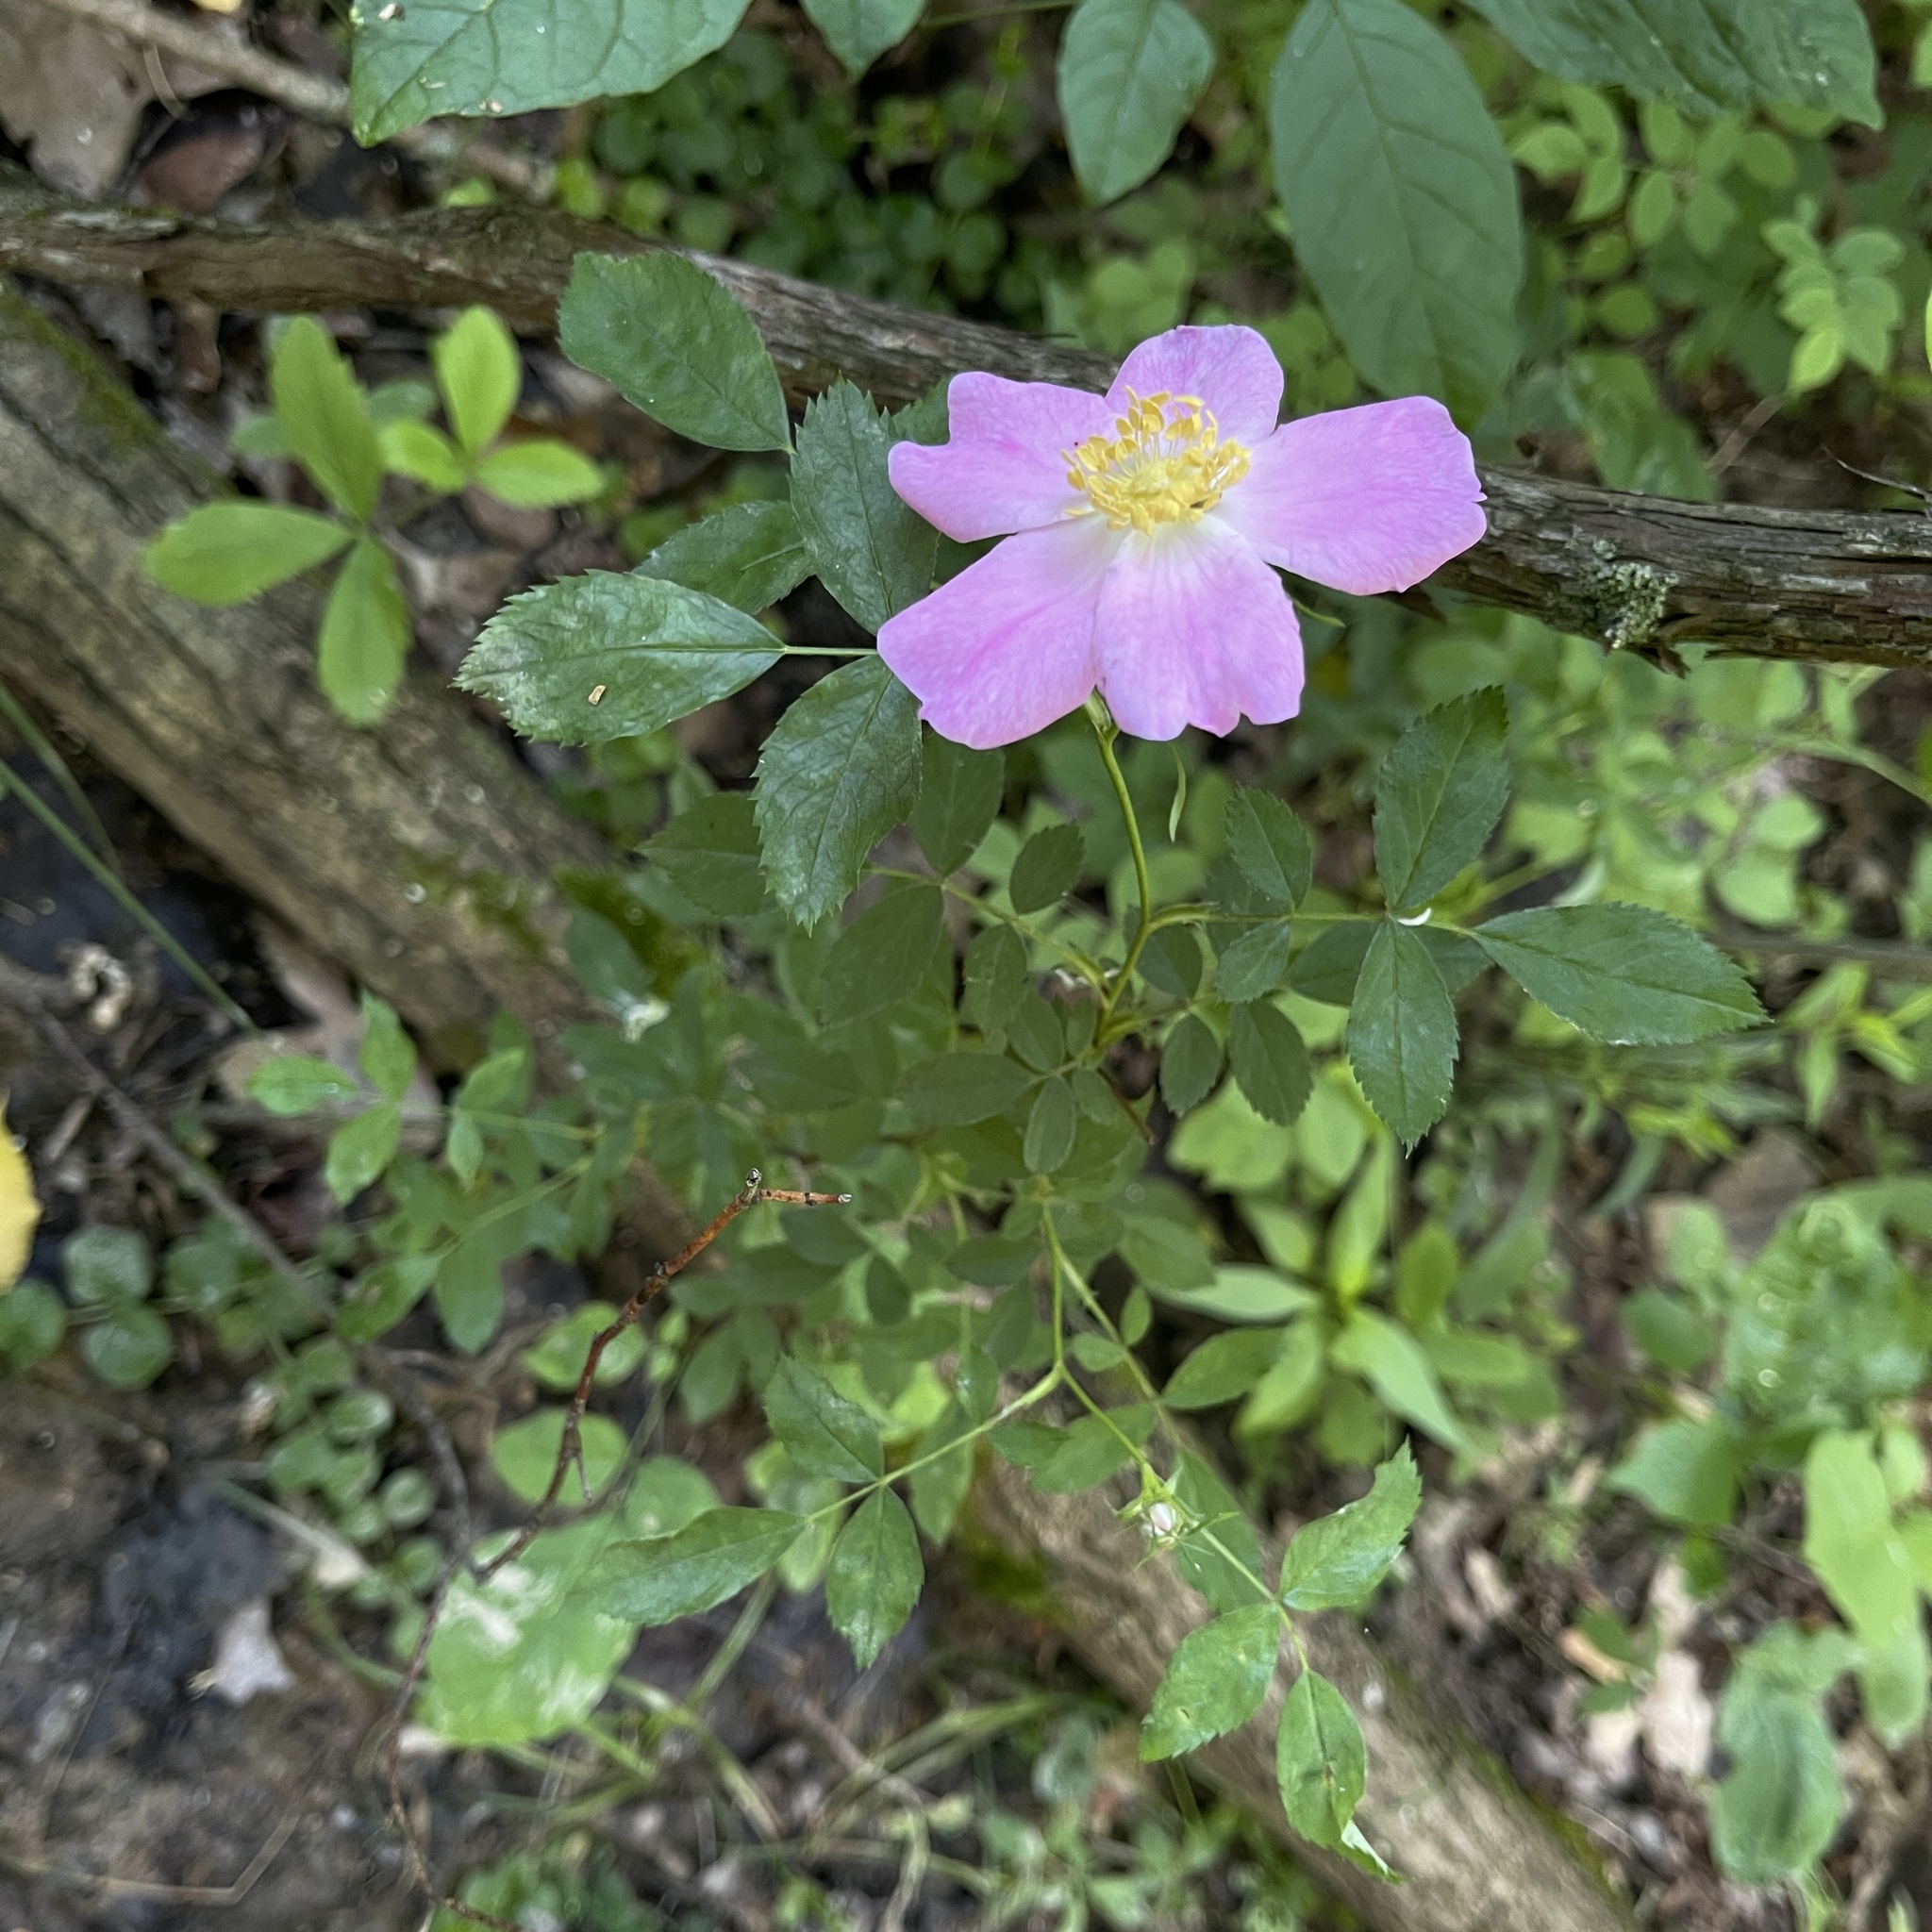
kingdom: Plantae
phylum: Tracheophyta
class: Magnoliopsida
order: Rosales
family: Rosaceae
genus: Rosa
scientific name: Rosa carolina
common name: Pasture rose
